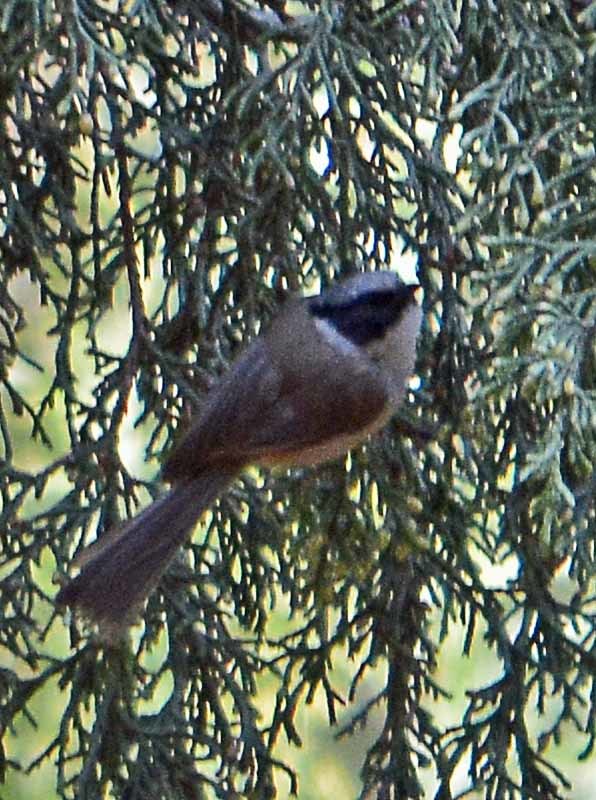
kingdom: Animalia
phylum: Chordata
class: Aves
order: Passeriformes
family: Aegithalidae
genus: Psaltriparus
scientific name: Psaltriparus minimus
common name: American bushtit
